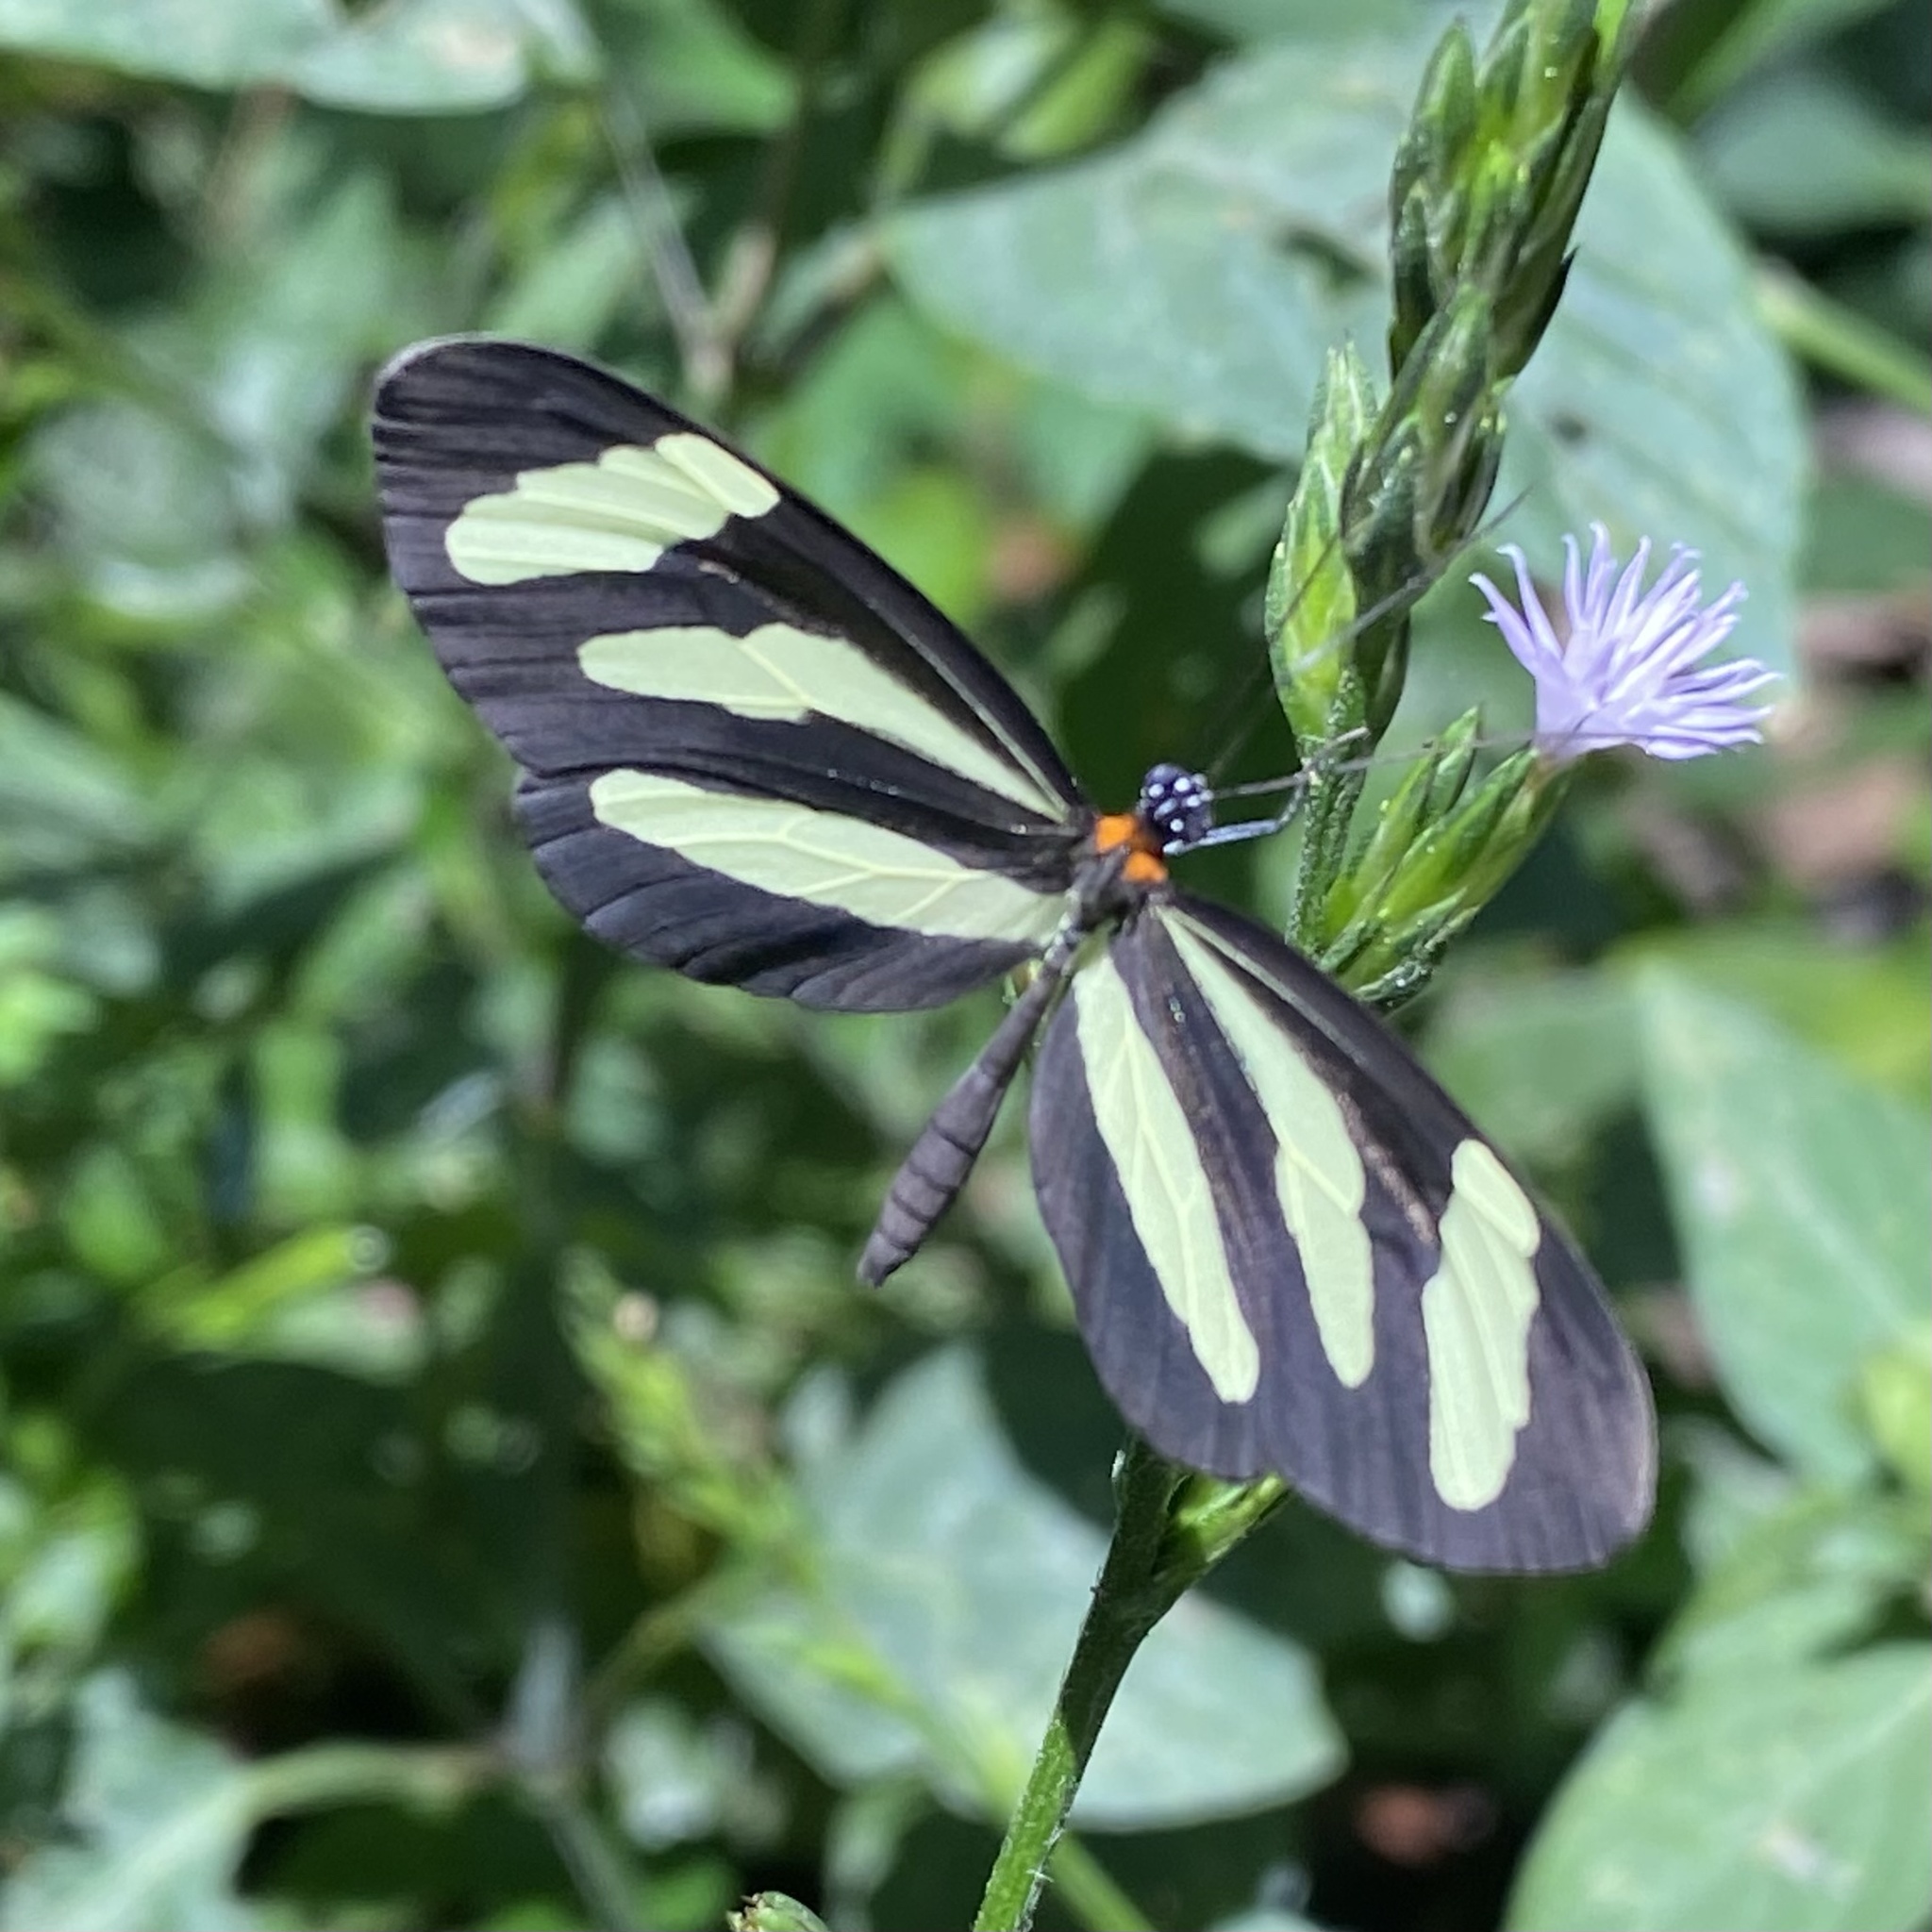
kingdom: Animalia
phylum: Arthropoda
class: Insecta
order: Lepidoptera
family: Nymphalidae
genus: Aeria
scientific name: Aeria eurimedia
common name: Banded tigerwing
